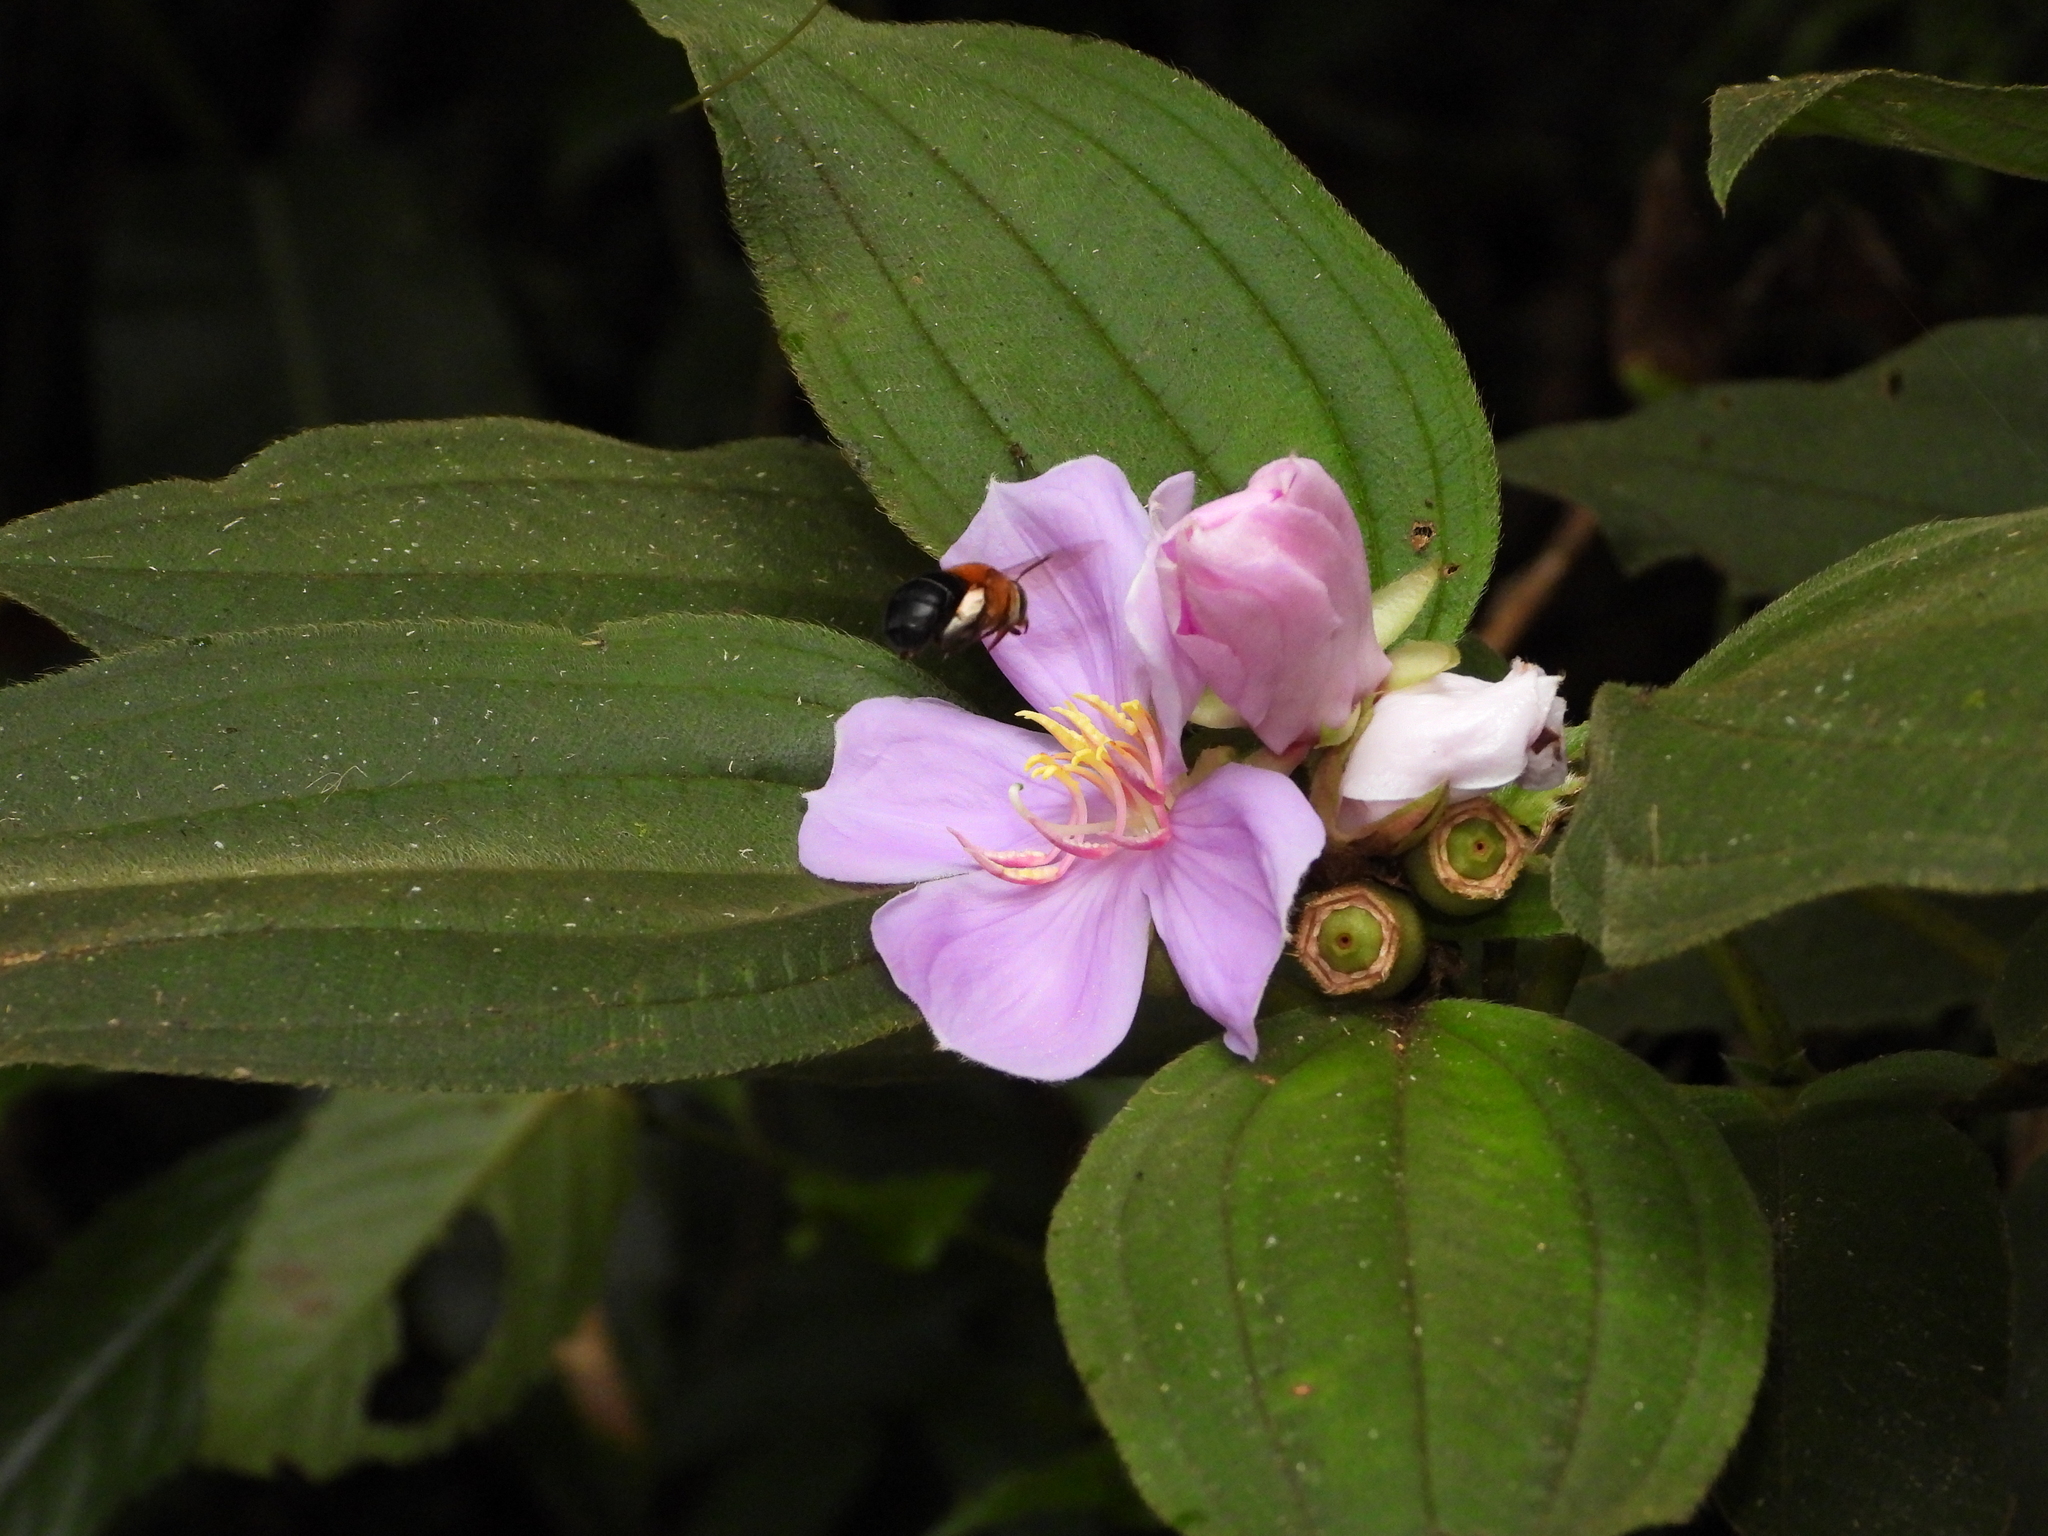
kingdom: Animalia
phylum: Arthropoda
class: Insecta
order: Hymenoptera
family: Apidae
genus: Amegilla
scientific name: Amegilla urens
